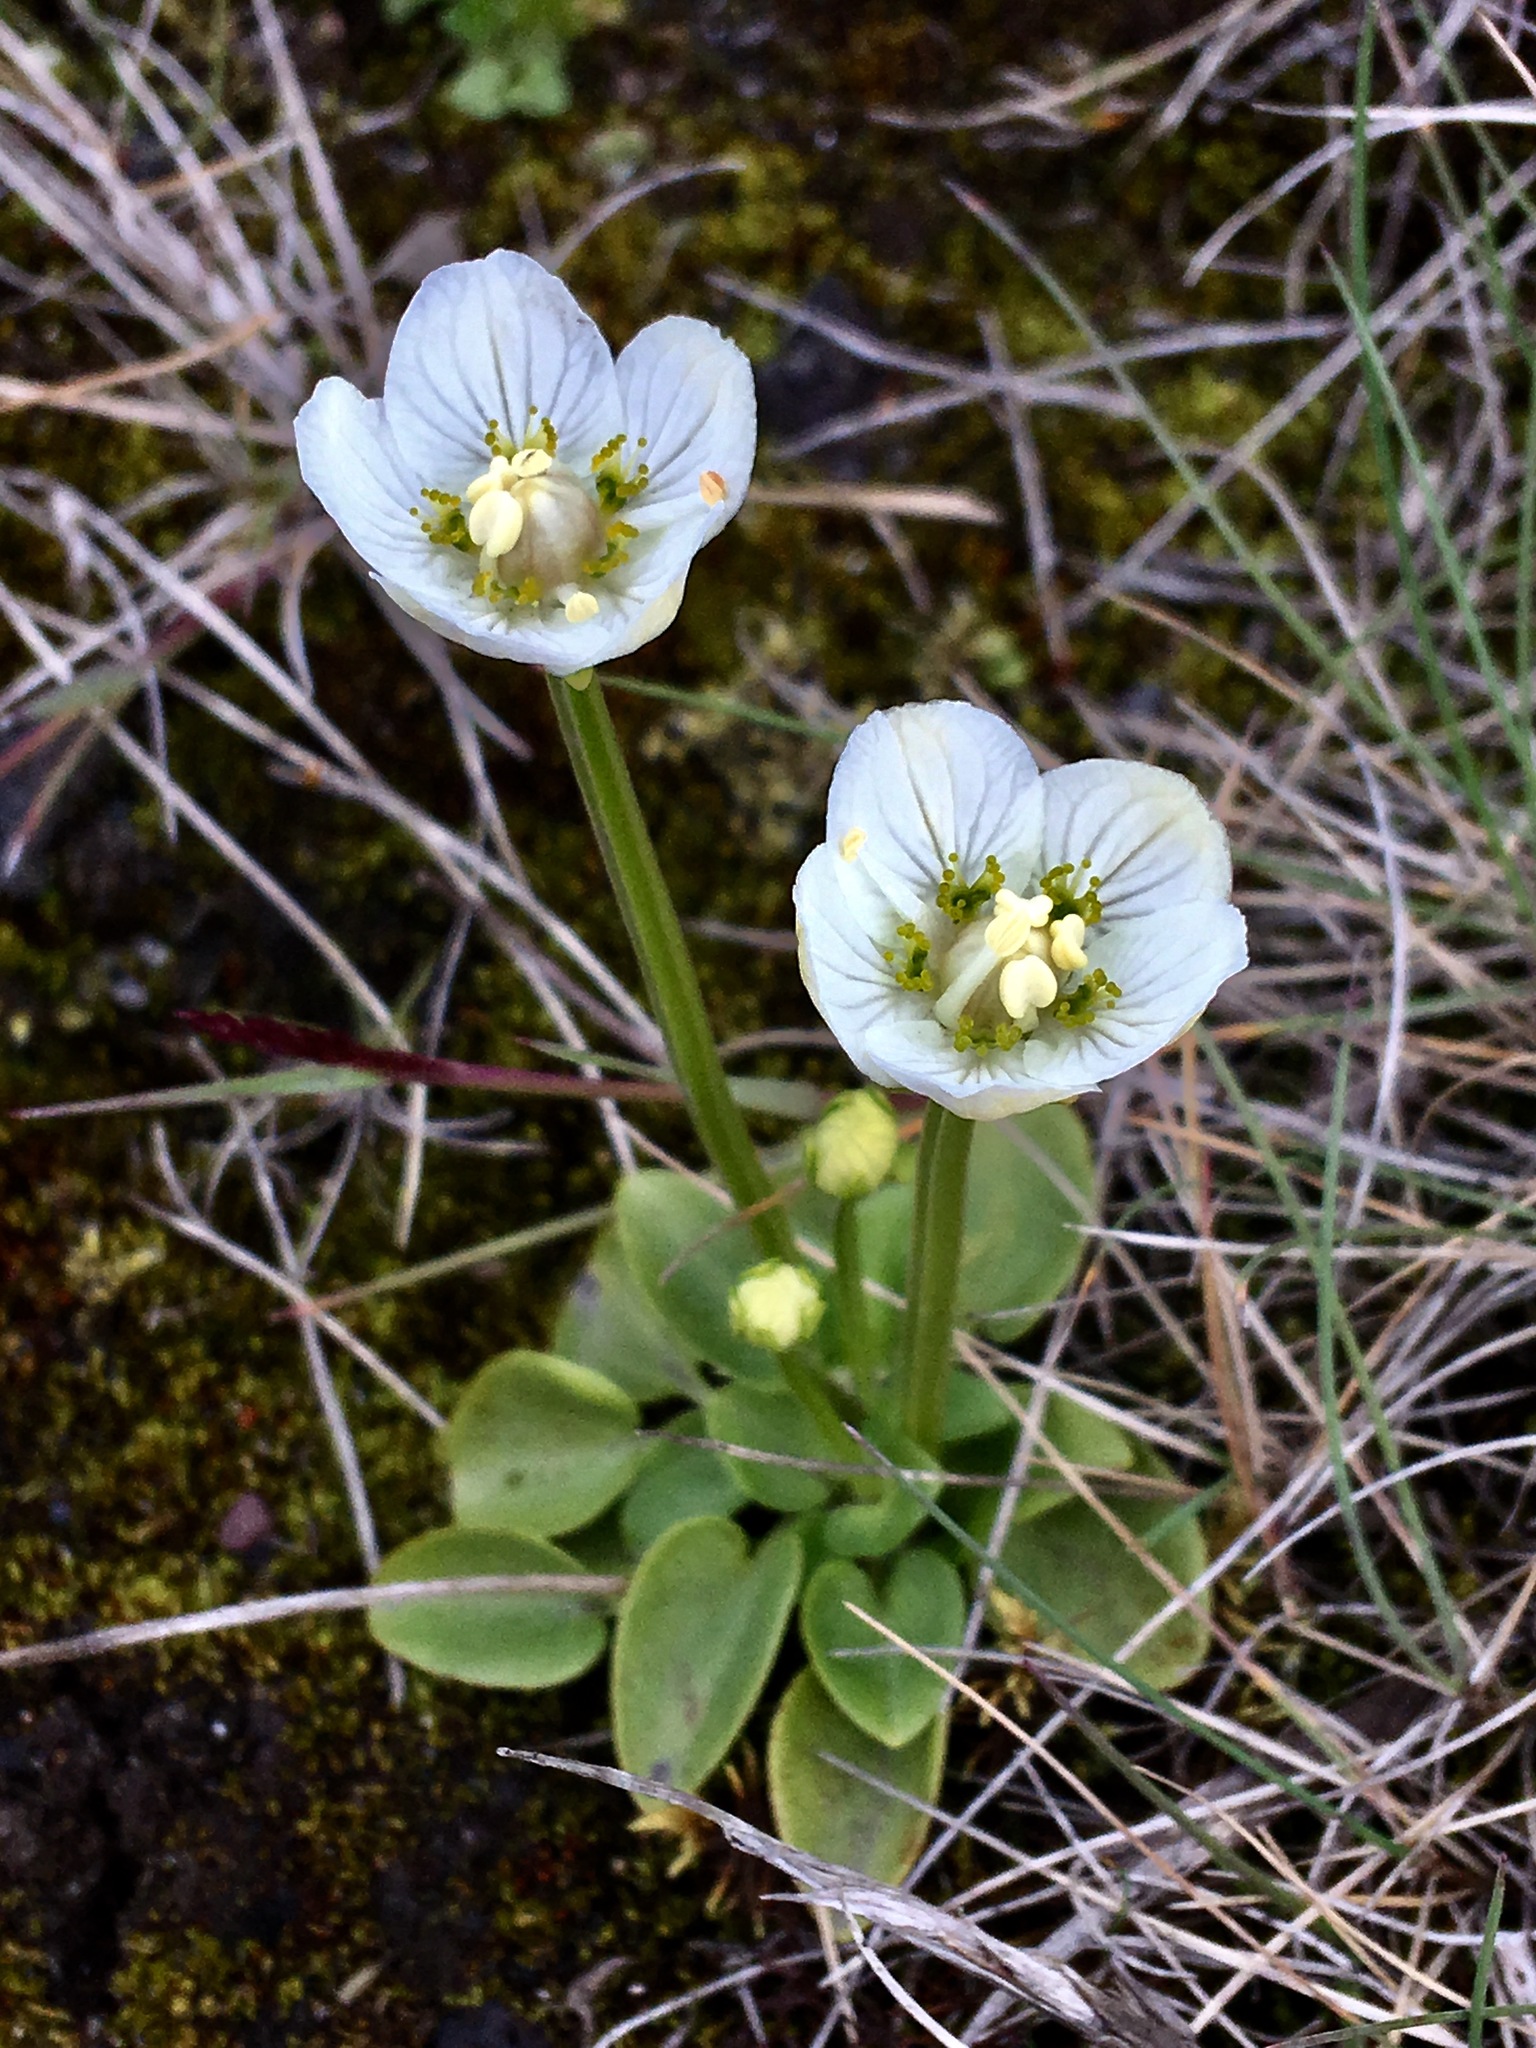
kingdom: Plantae
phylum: Tracheophyta
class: Magnoliopsida
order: Celastrales
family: Parnassiaceae
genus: Parnassia
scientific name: Parnassia palustris
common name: Grass-of-parnassus
